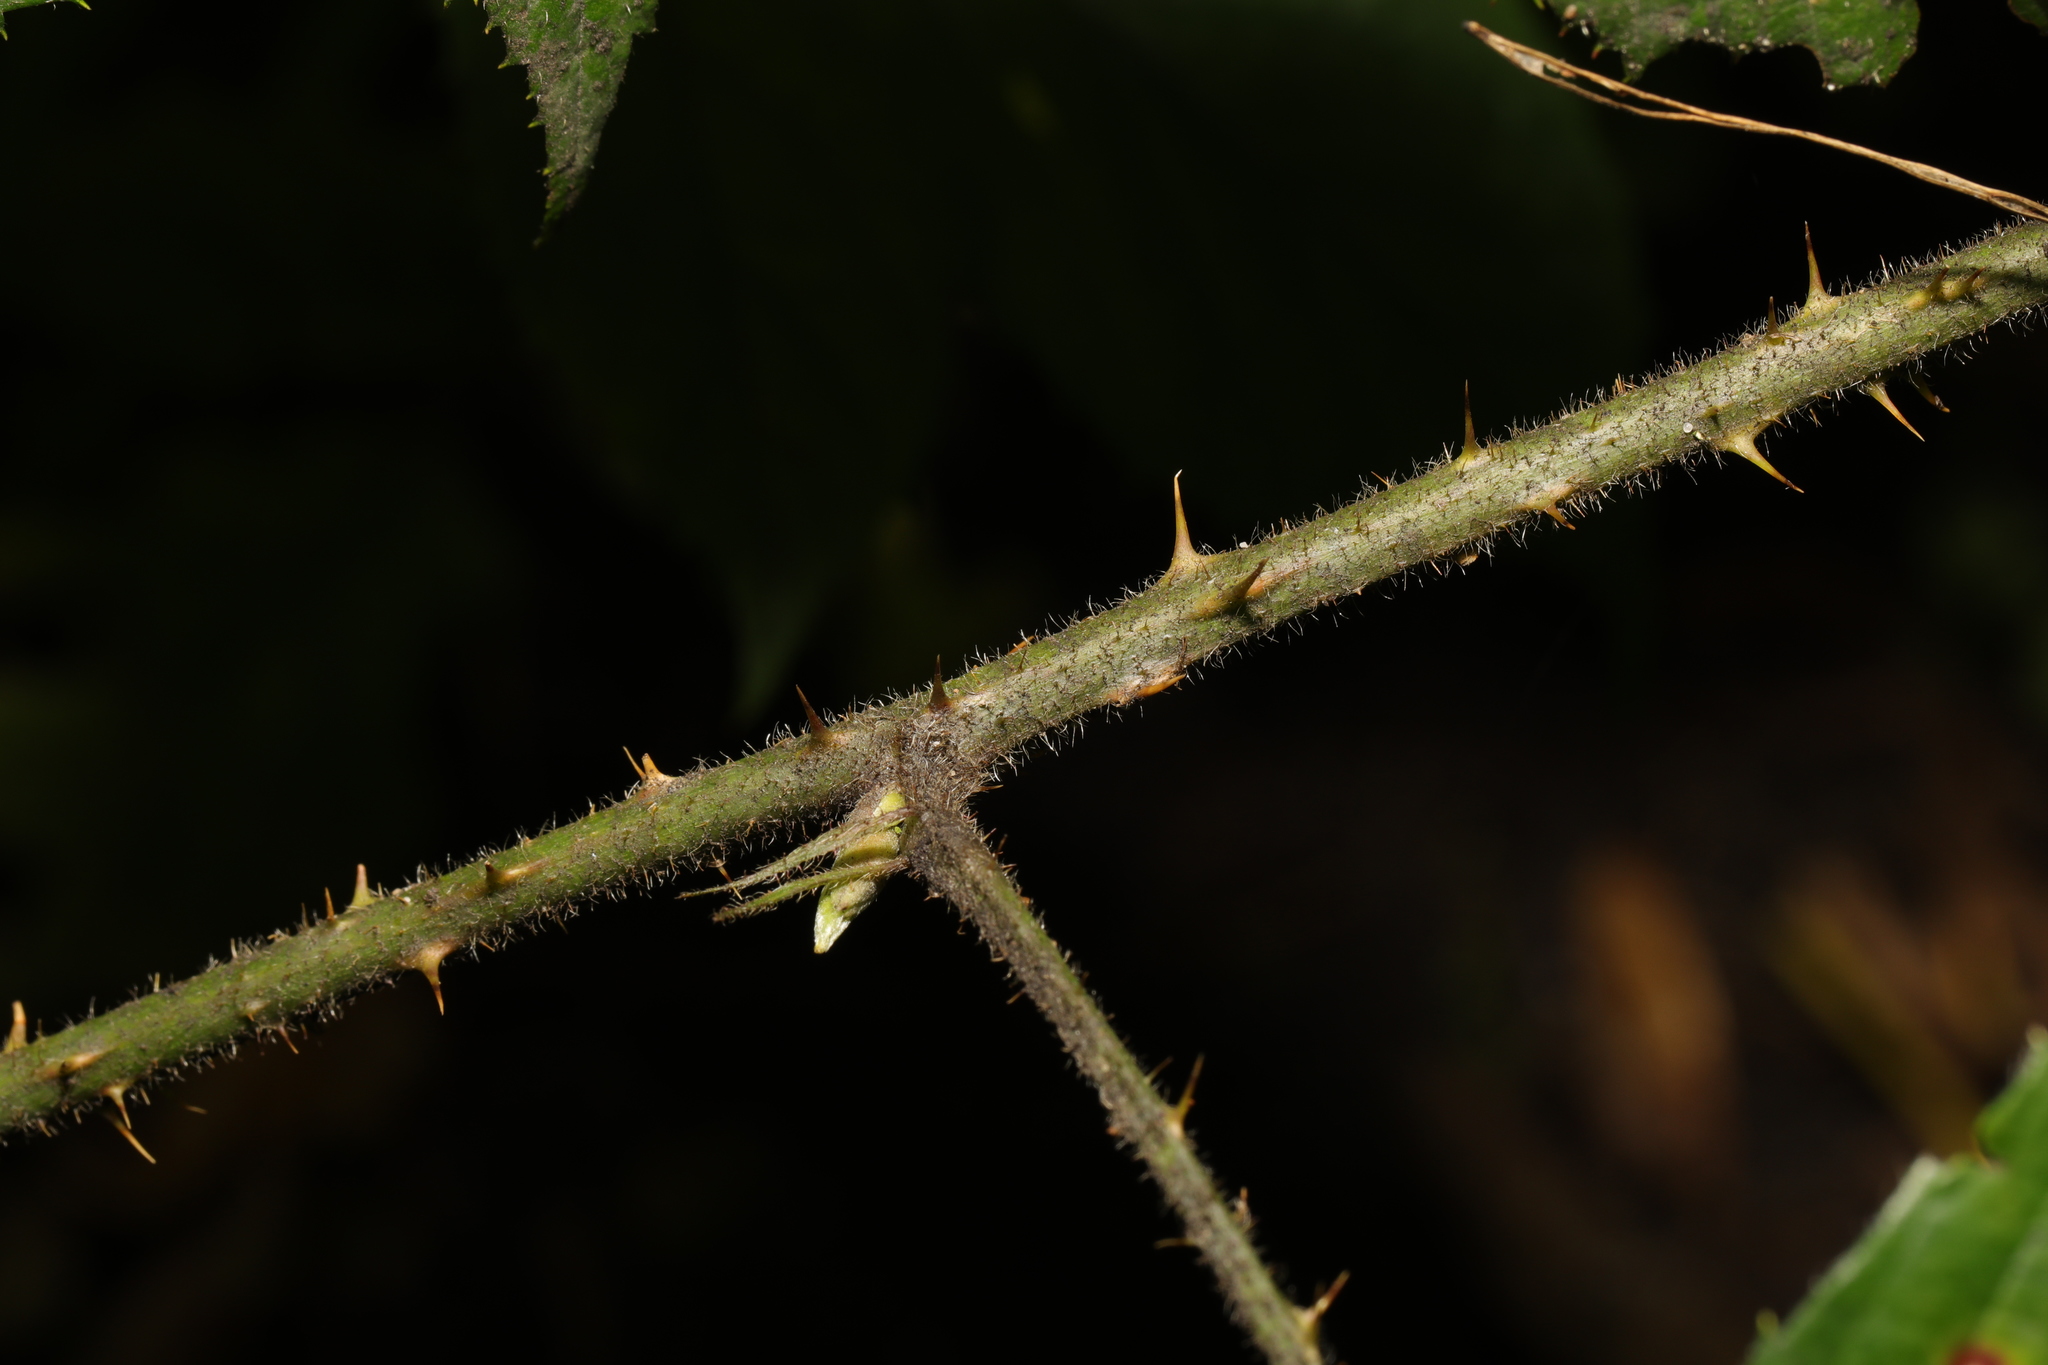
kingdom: Plantae
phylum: Tracheophyta
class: Magnoliopsida
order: Rosales
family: Rosaceae
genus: Rubus
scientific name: Rubus dasyphyllus
